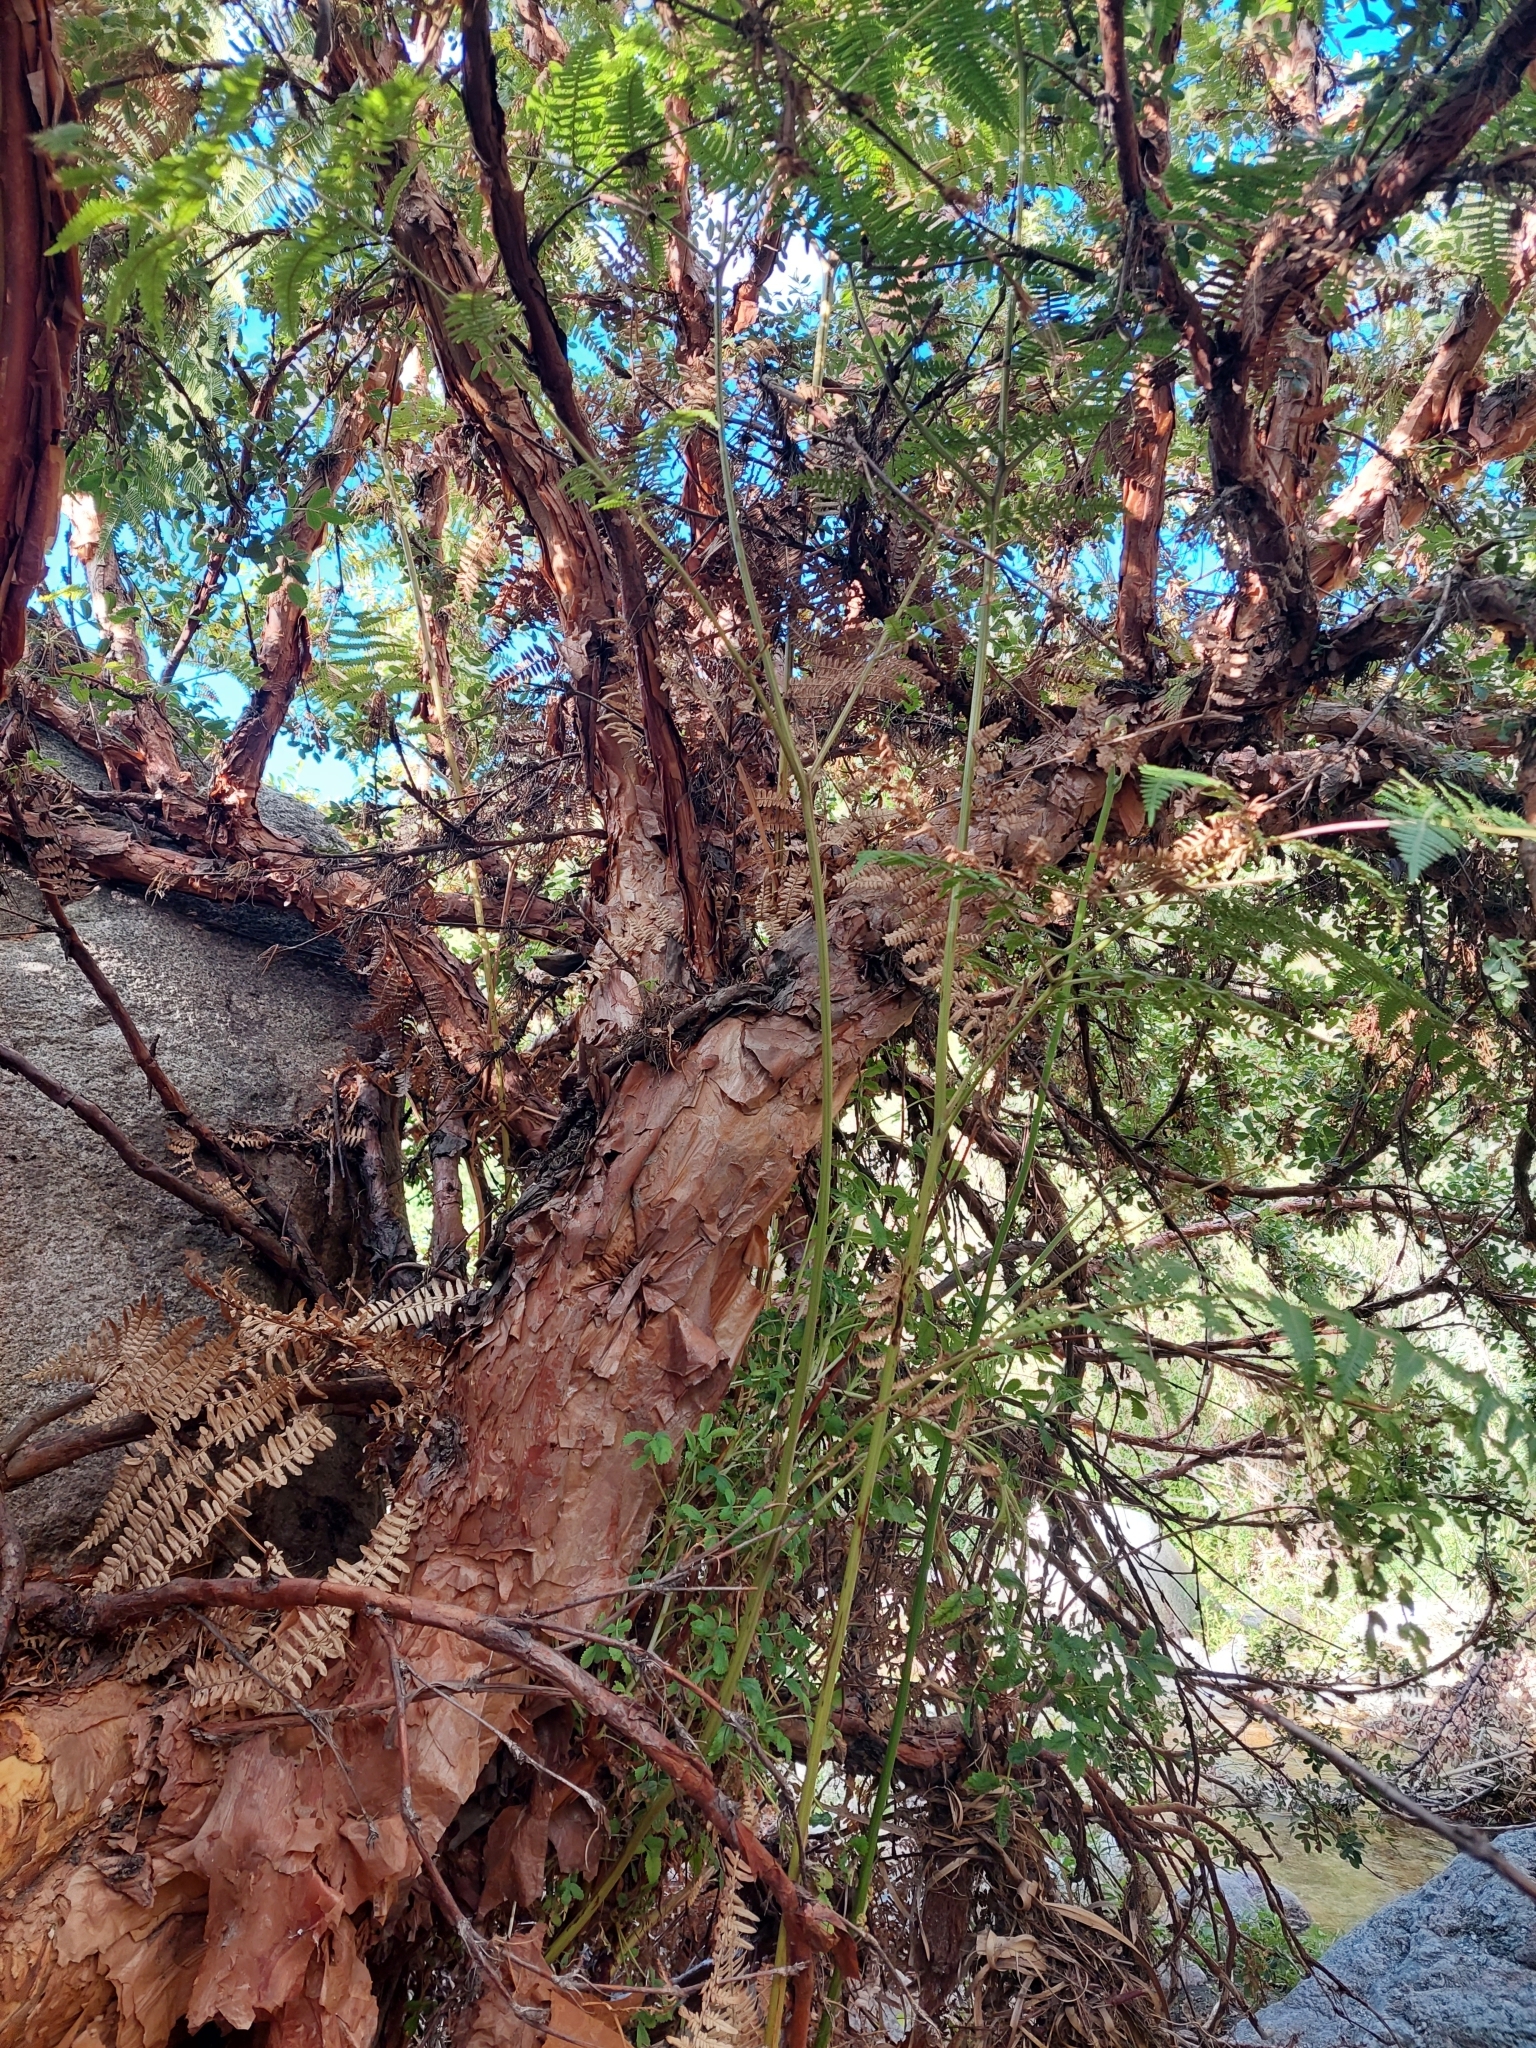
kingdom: Plantae
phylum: Tracheophyta
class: Magnoliopsida
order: Rosales
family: Rosaceae
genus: Polylepis
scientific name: Polylepis australis
